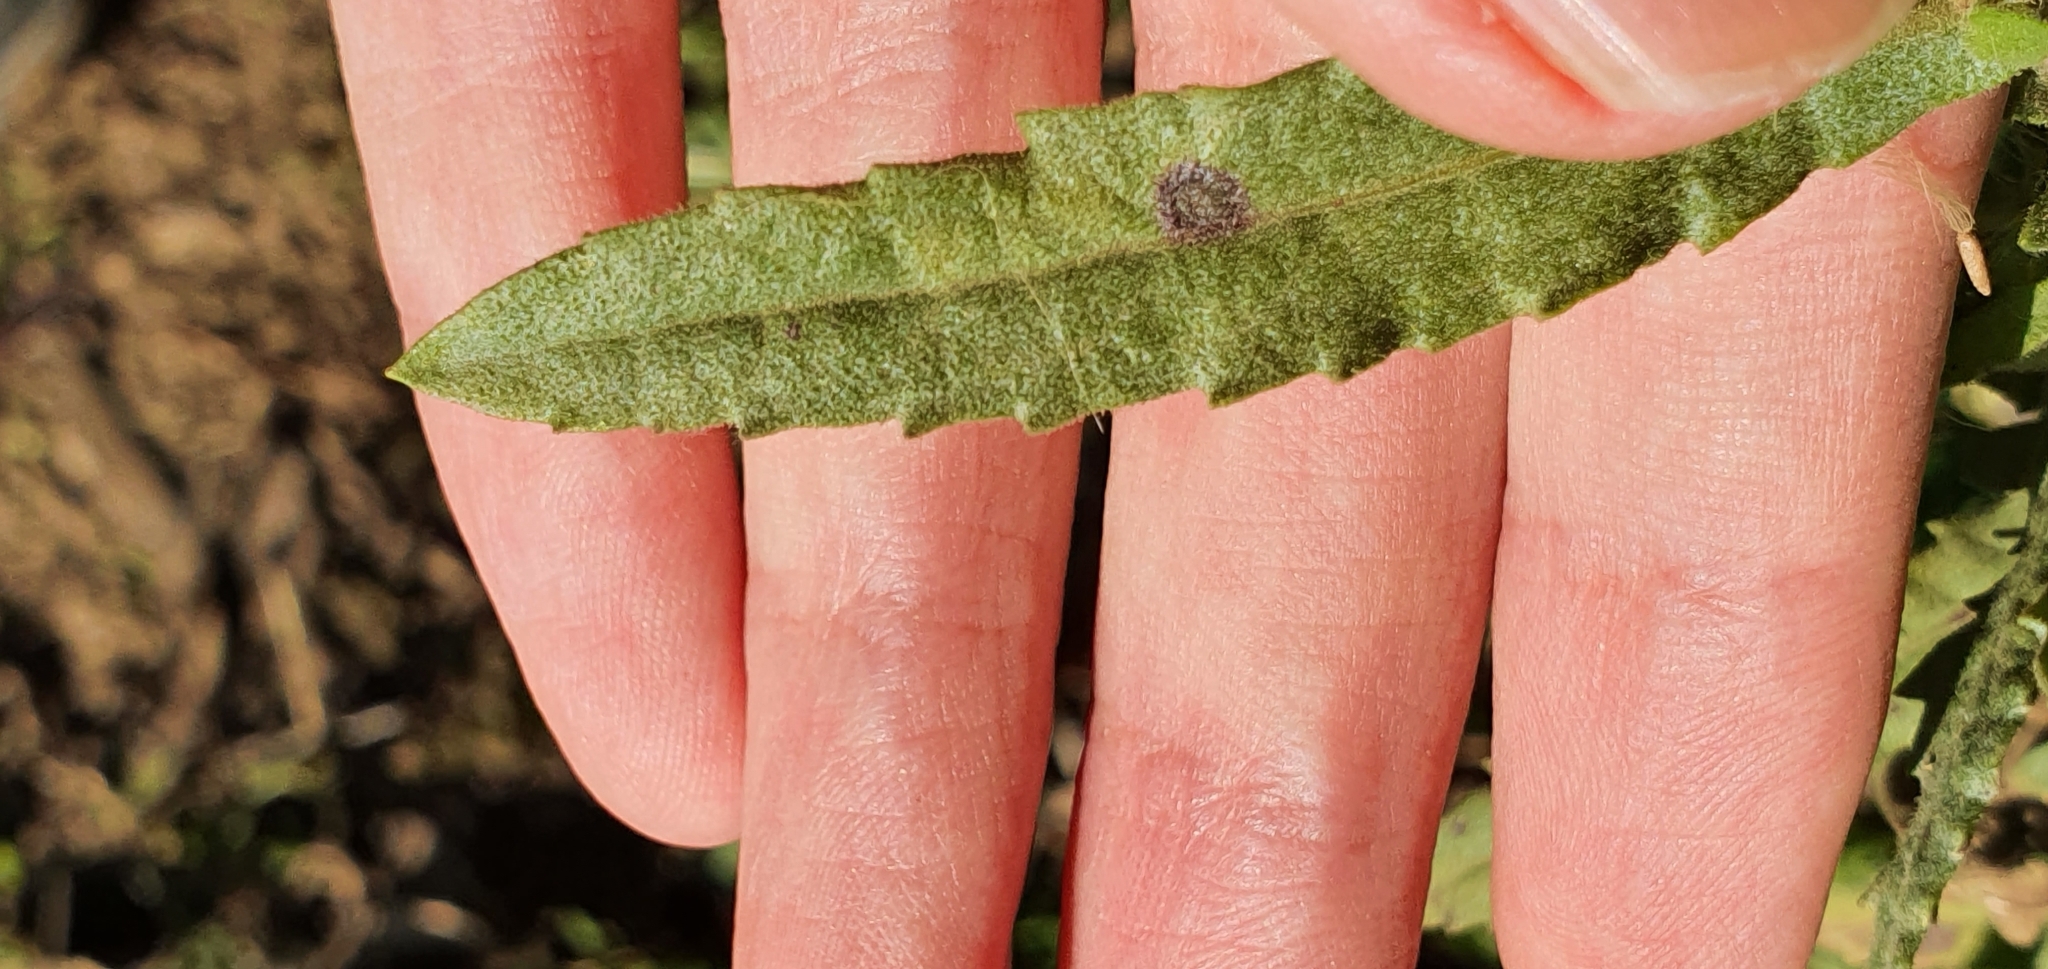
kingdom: Plantae
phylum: Tracheophyta
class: Magnoliopsida
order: Asterales
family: Asteraceae
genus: Dittrichia
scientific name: Dittrichia viscosa
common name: Woody fleabane
